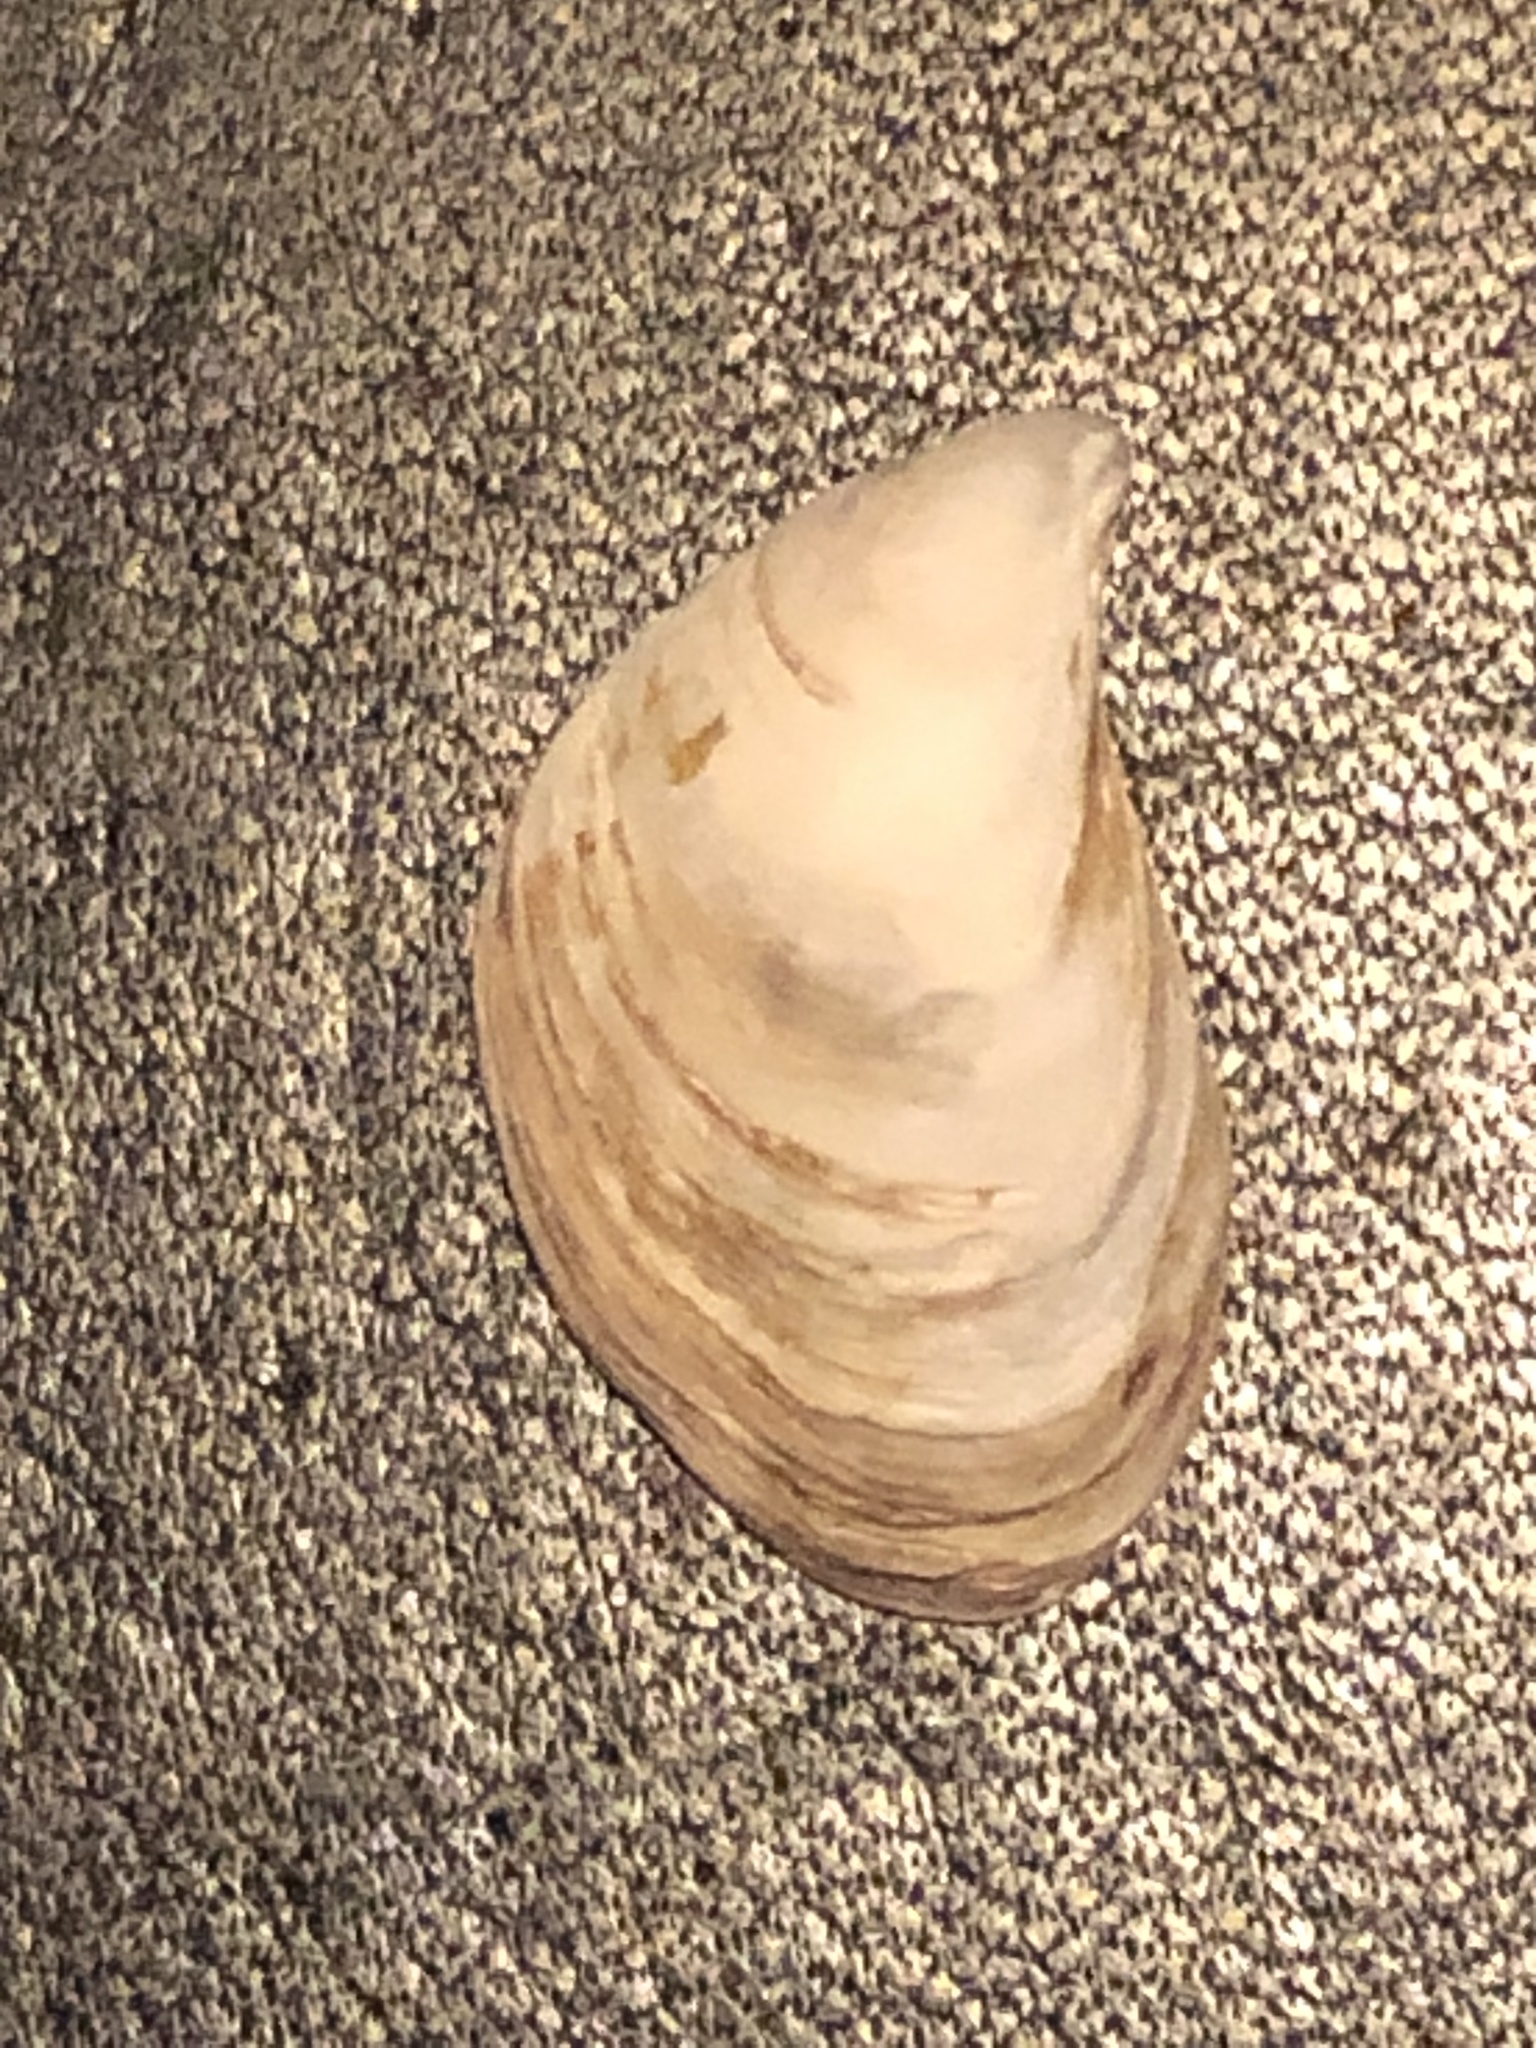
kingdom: Animalia
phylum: Mollusca
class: Bivalvia
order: Myida
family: Dreissenidae
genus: Dreissena
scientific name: Dreissena bugensis
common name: Quagga mussel
